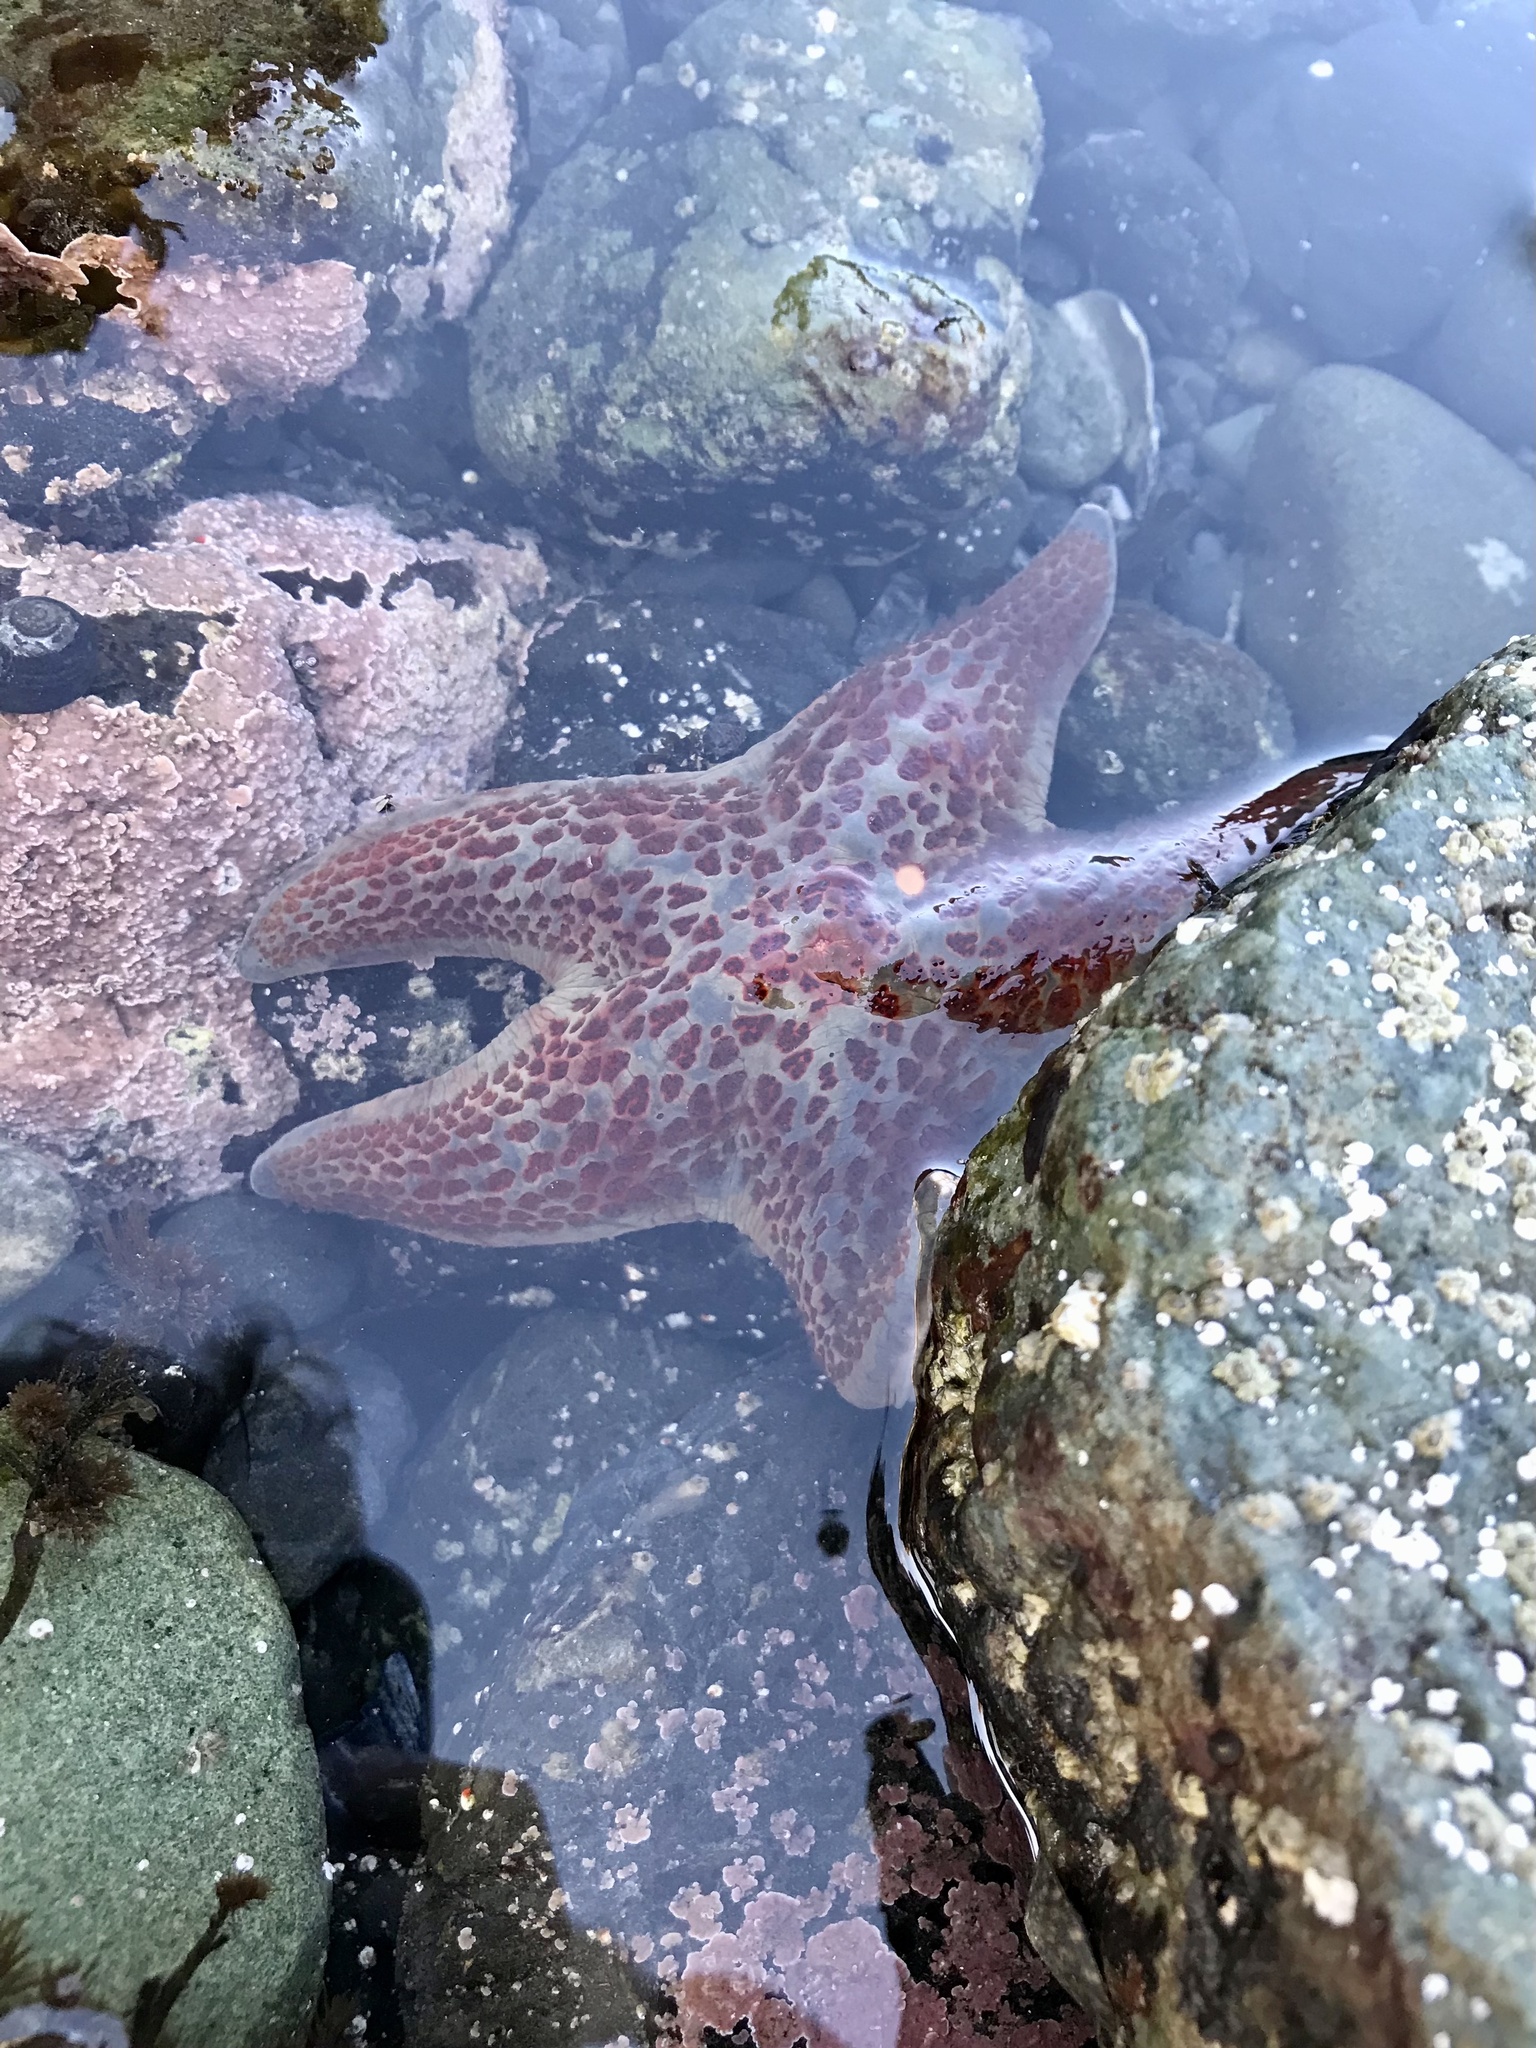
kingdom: Animalia
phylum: Echinodermata
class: Asteroidea
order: Valvatida
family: Asteropseidae
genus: Dermasterias
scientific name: Dermasterias imbricata
